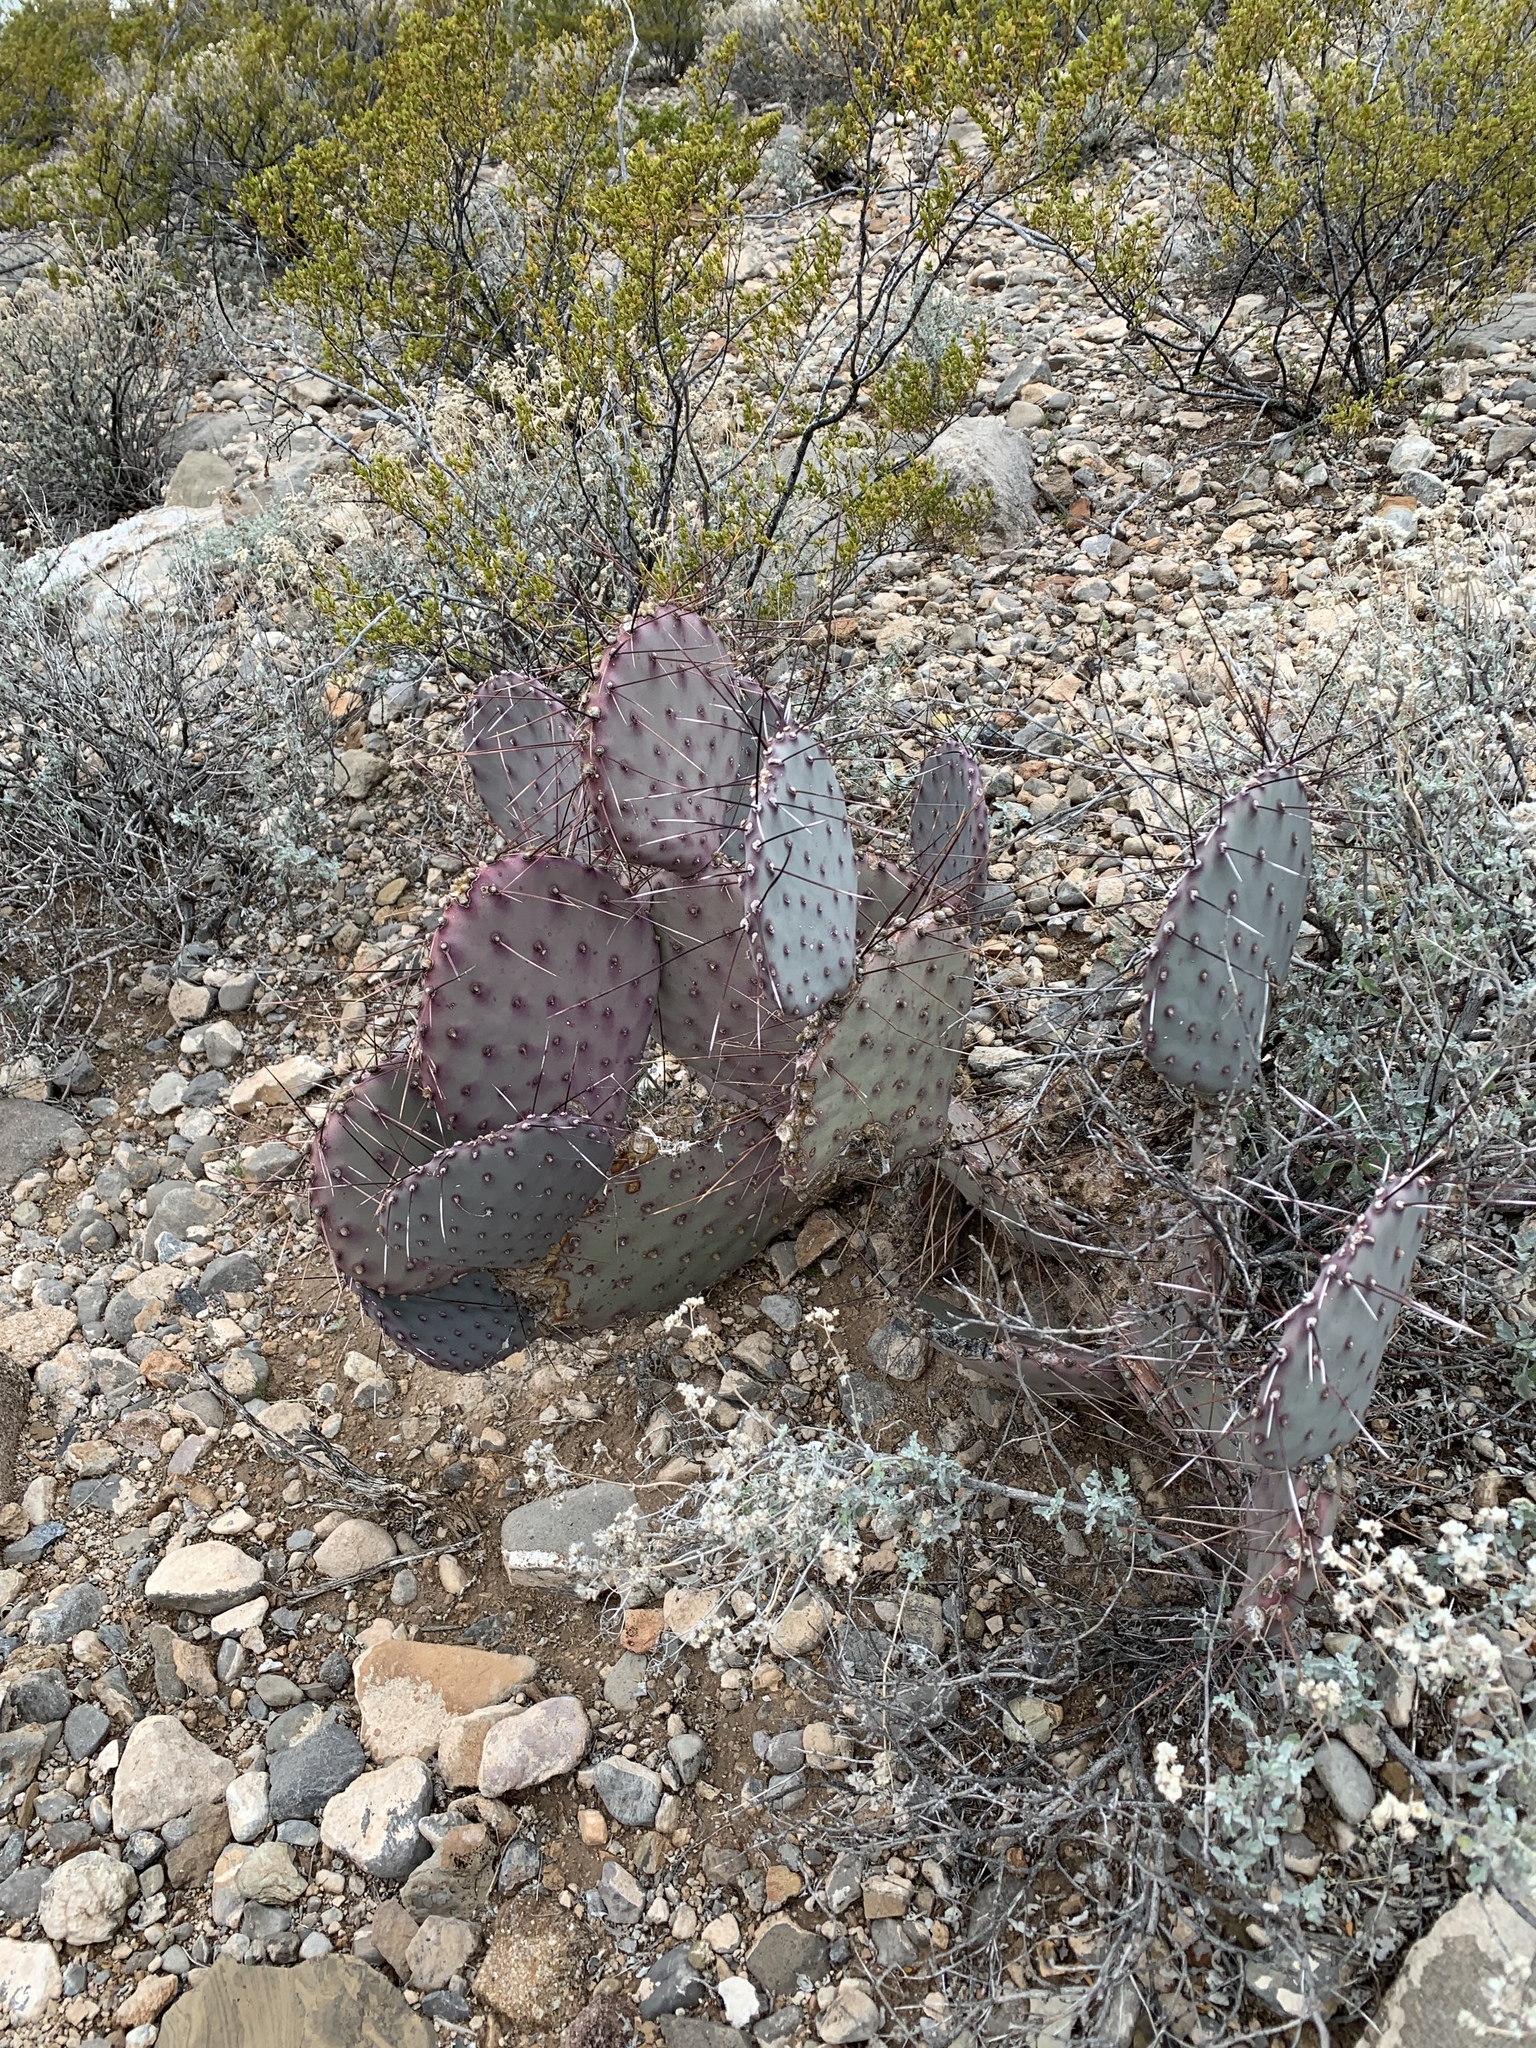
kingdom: Plantae
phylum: Tracheophyta
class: Magnoliopsida
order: Caryophyllales
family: Cactaceae
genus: Opuntia
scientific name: Opuntia macrocentra
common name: Purple prickly-pear
